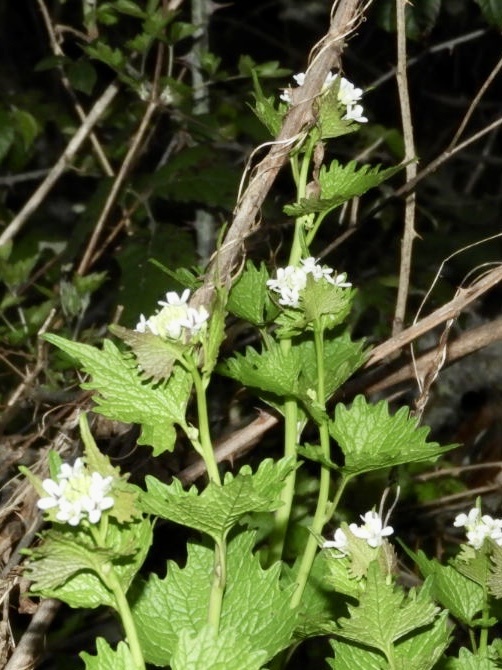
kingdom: Plantae
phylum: Tracheophyta
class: Magnoliopsida
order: Brassicales
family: Brassicaceae
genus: Alliaria
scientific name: Alliaria petiolata
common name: Garlic mustard
